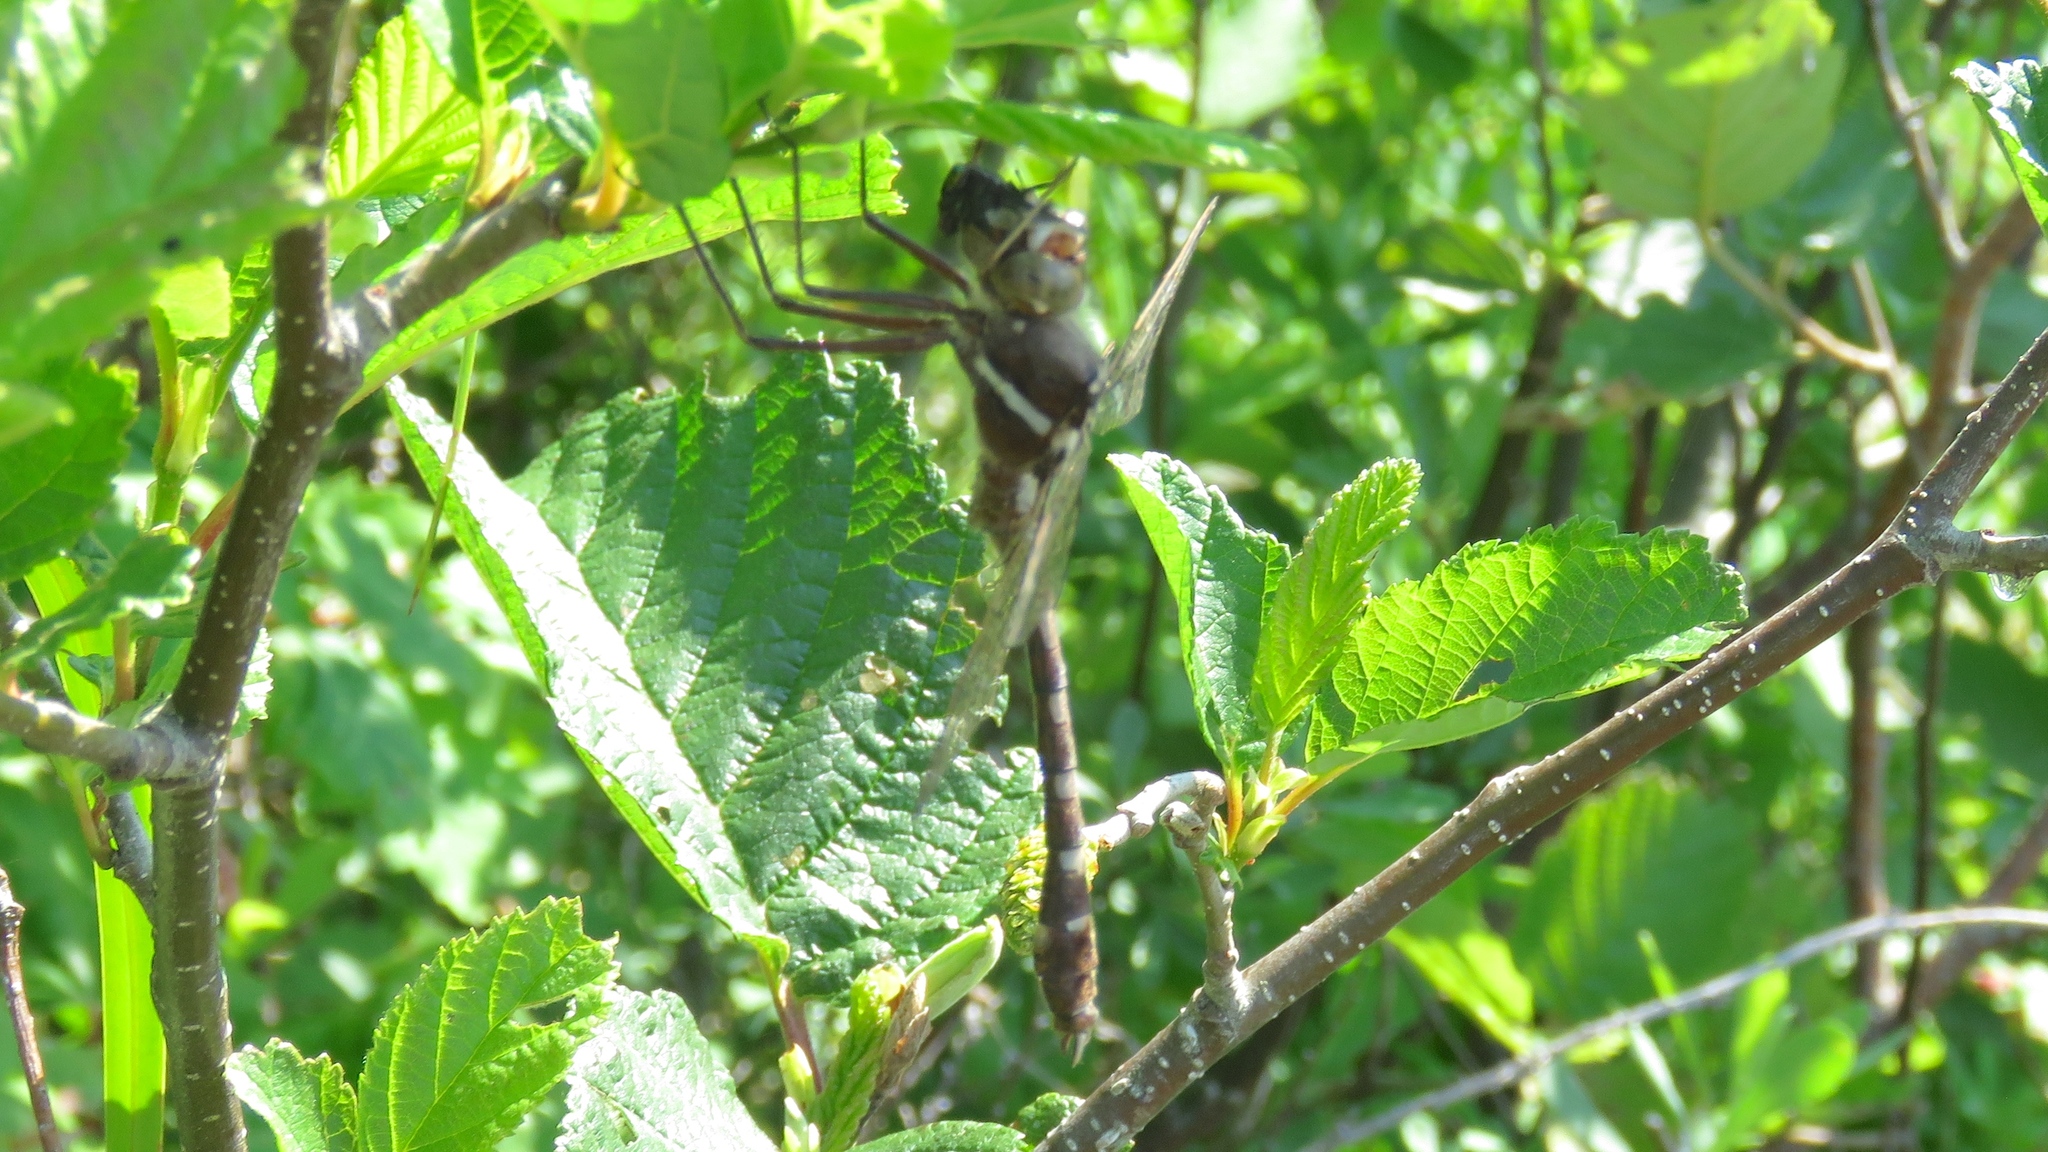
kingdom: Animalia
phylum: Arthropoda
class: Insecta
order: Odonata
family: Macromiidae
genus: Didymops
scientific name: Didymops transversa
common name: Stream cruiser
